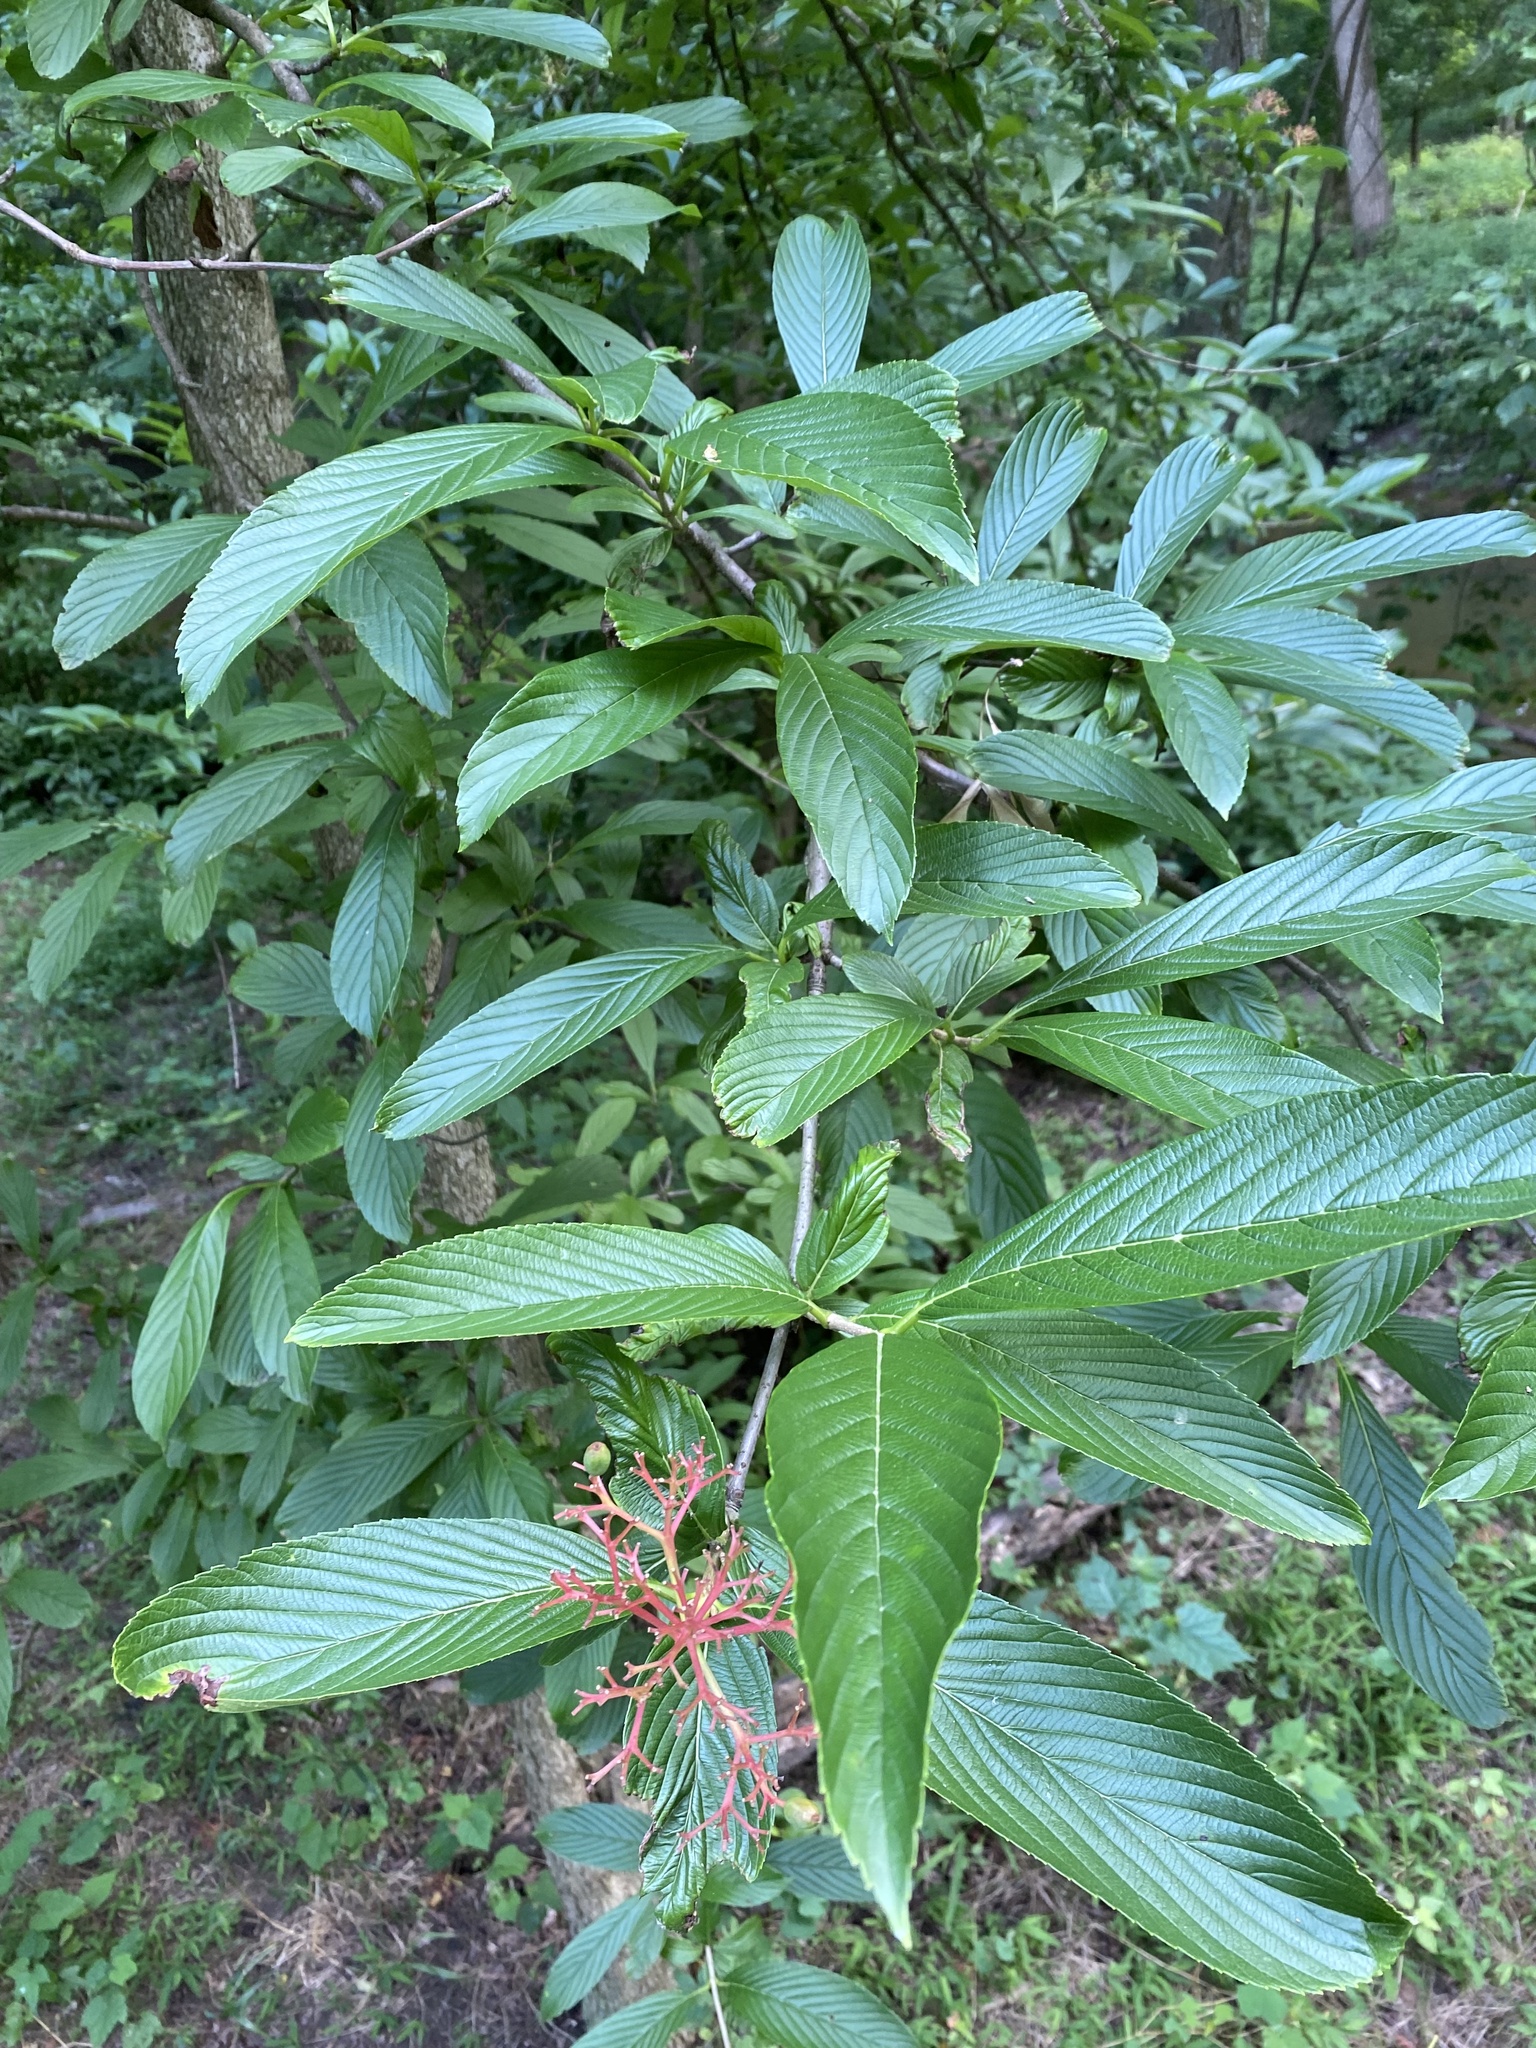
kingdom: Plantae
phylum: Tracheophyta
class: Magnoliopsida
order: Dipsacales
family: Viburnaceae
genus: Viburnum
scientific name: Viburnum sieboldii
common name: Siebold's arrowwood
